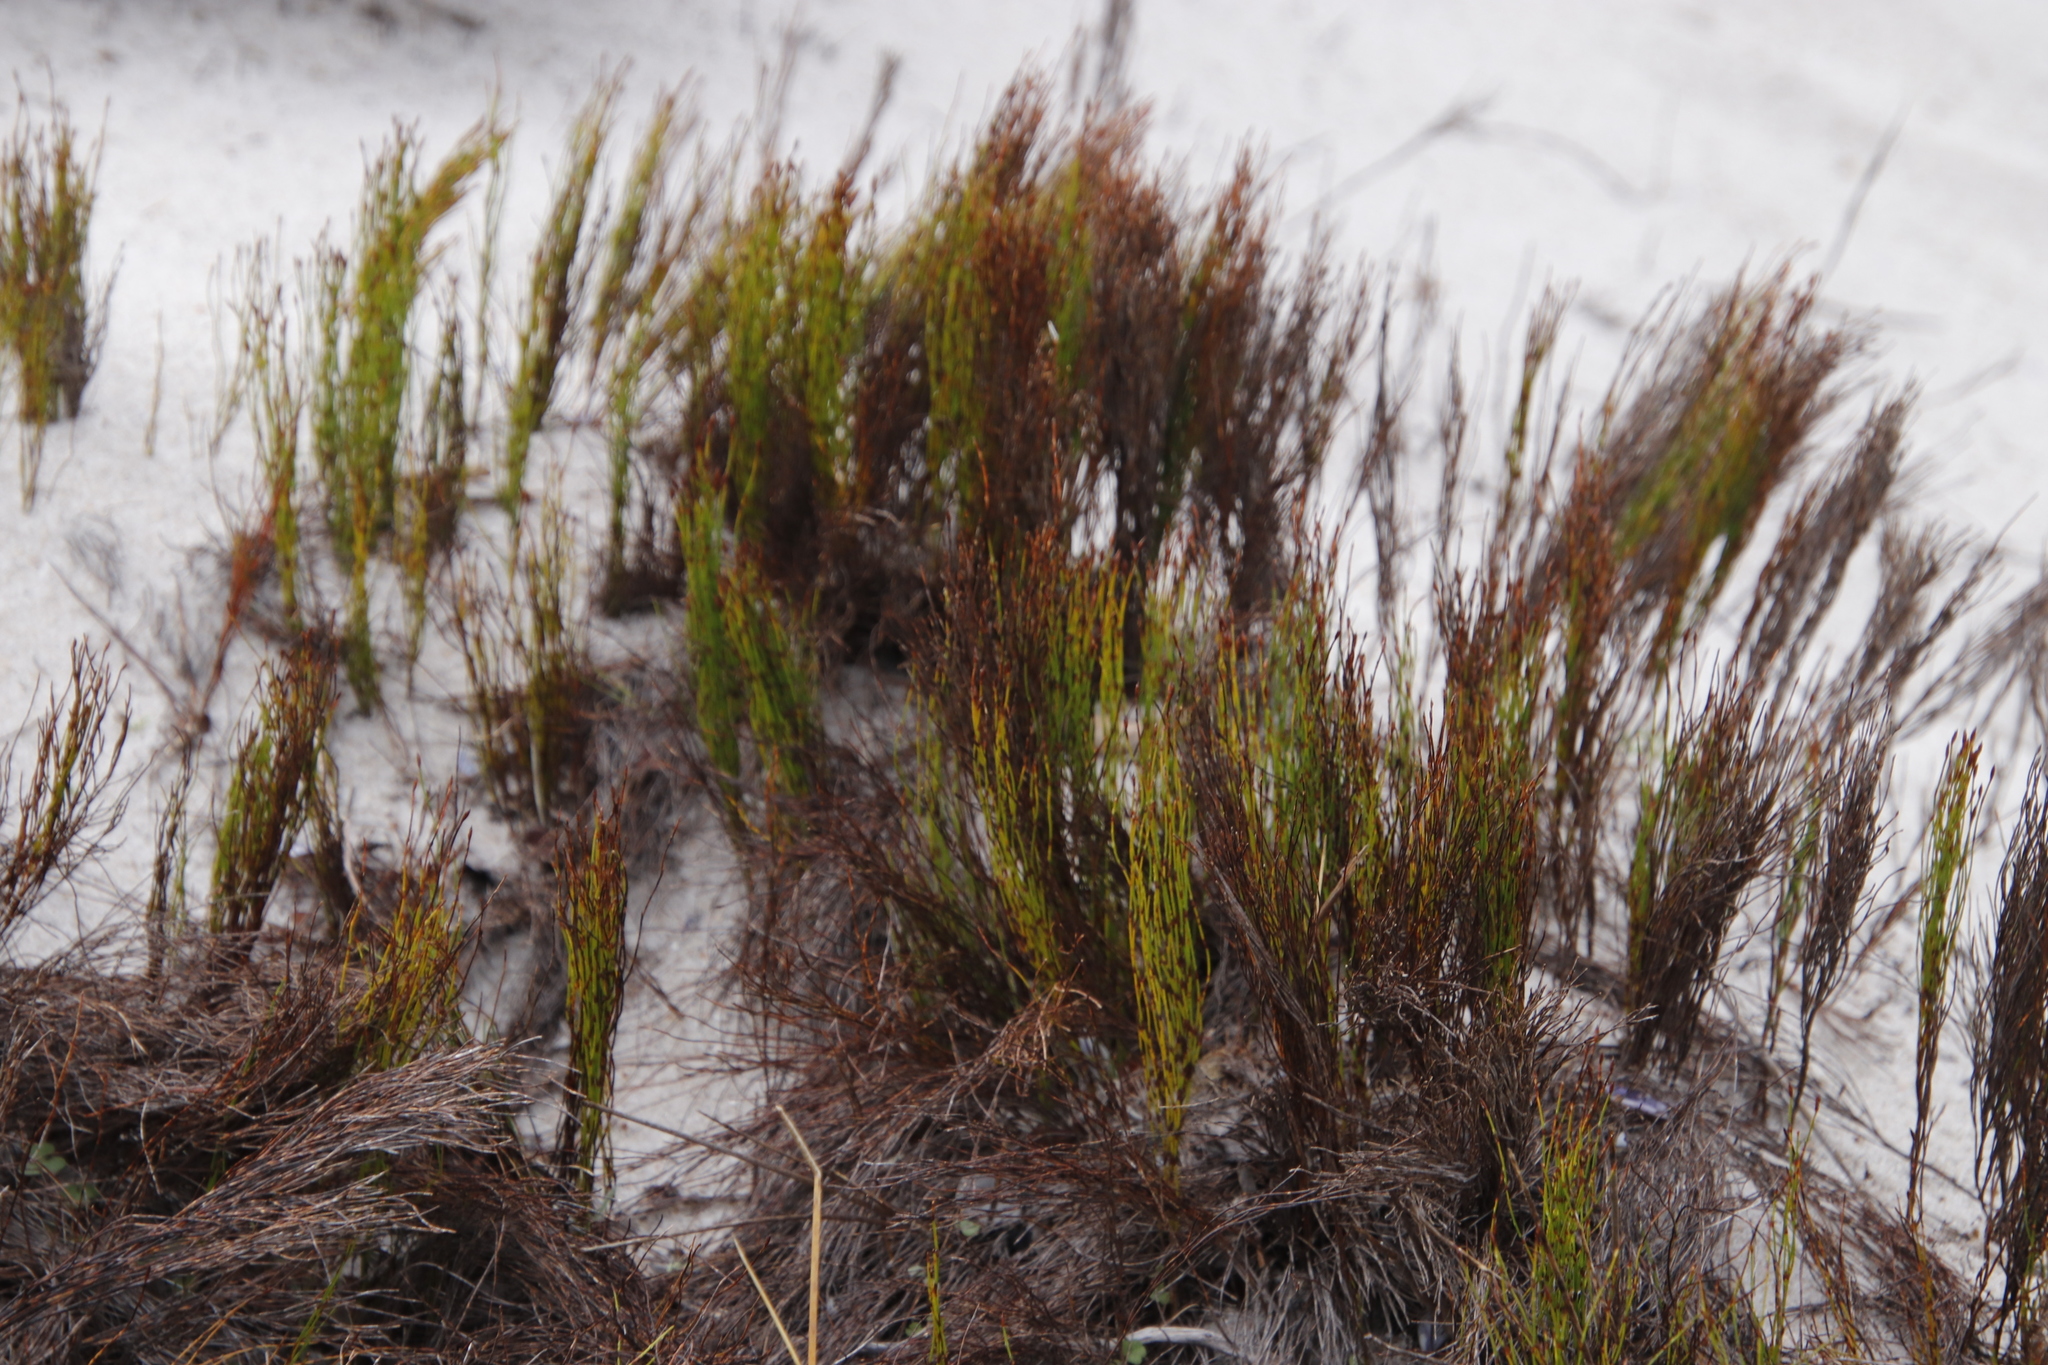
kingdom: Plantae
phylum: Tracheophyta
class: Liliopsida
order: Poales
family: Restionaceae
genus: Restio
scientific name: Restio eleocharis
